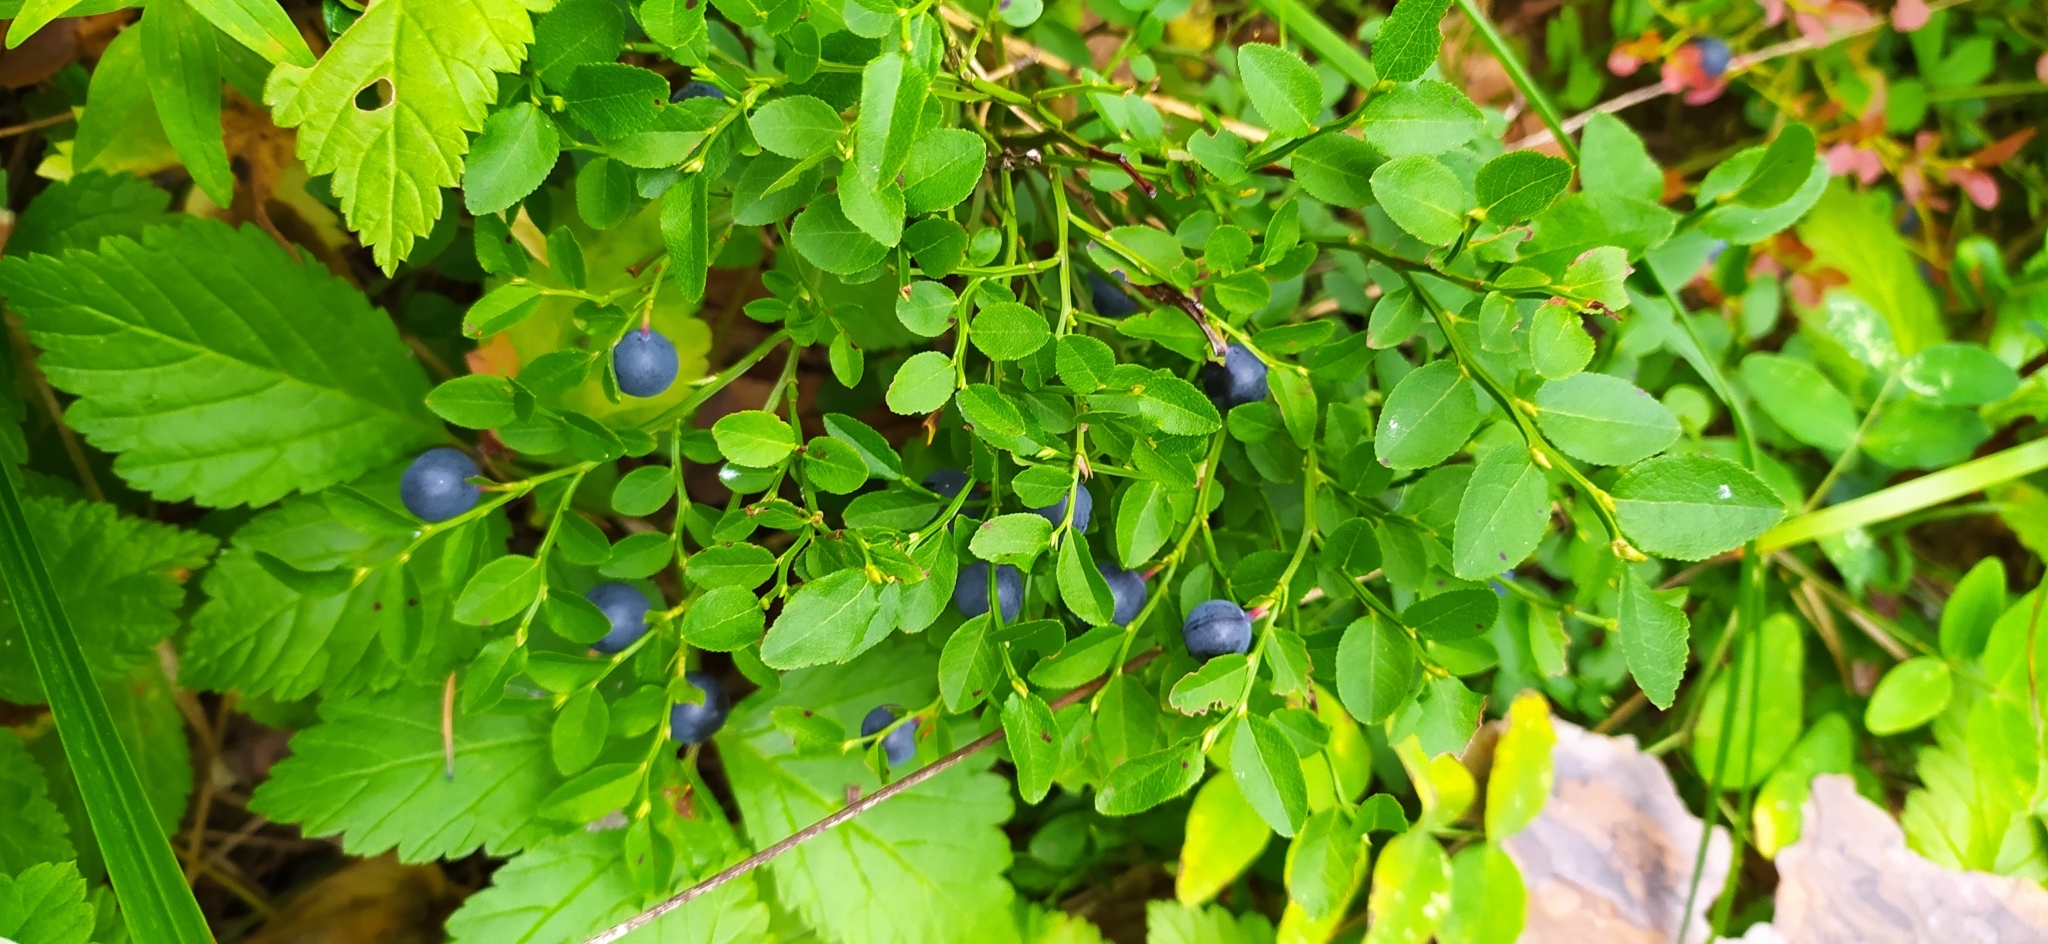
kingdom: Plantae
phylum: Tracheophyta
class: Magnoliopsida
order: Ericales
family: Ericaceae
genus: Vaccinium
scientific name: Vaccinium myrtillus
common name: Bilberry
